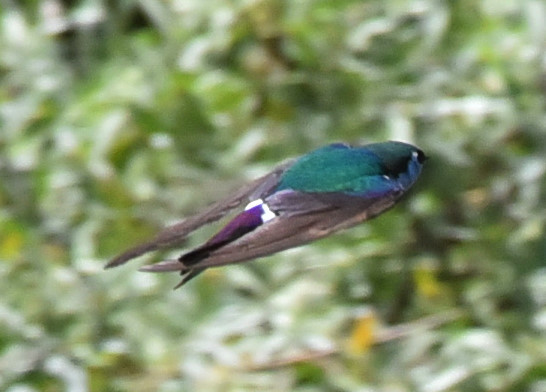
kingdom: Animalia
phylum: Chordata
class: Aves
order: Passeriformes
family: Hirundinidae
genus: Tachycineta
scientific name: Tachycineta thalassina
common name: Violet-green swallow
